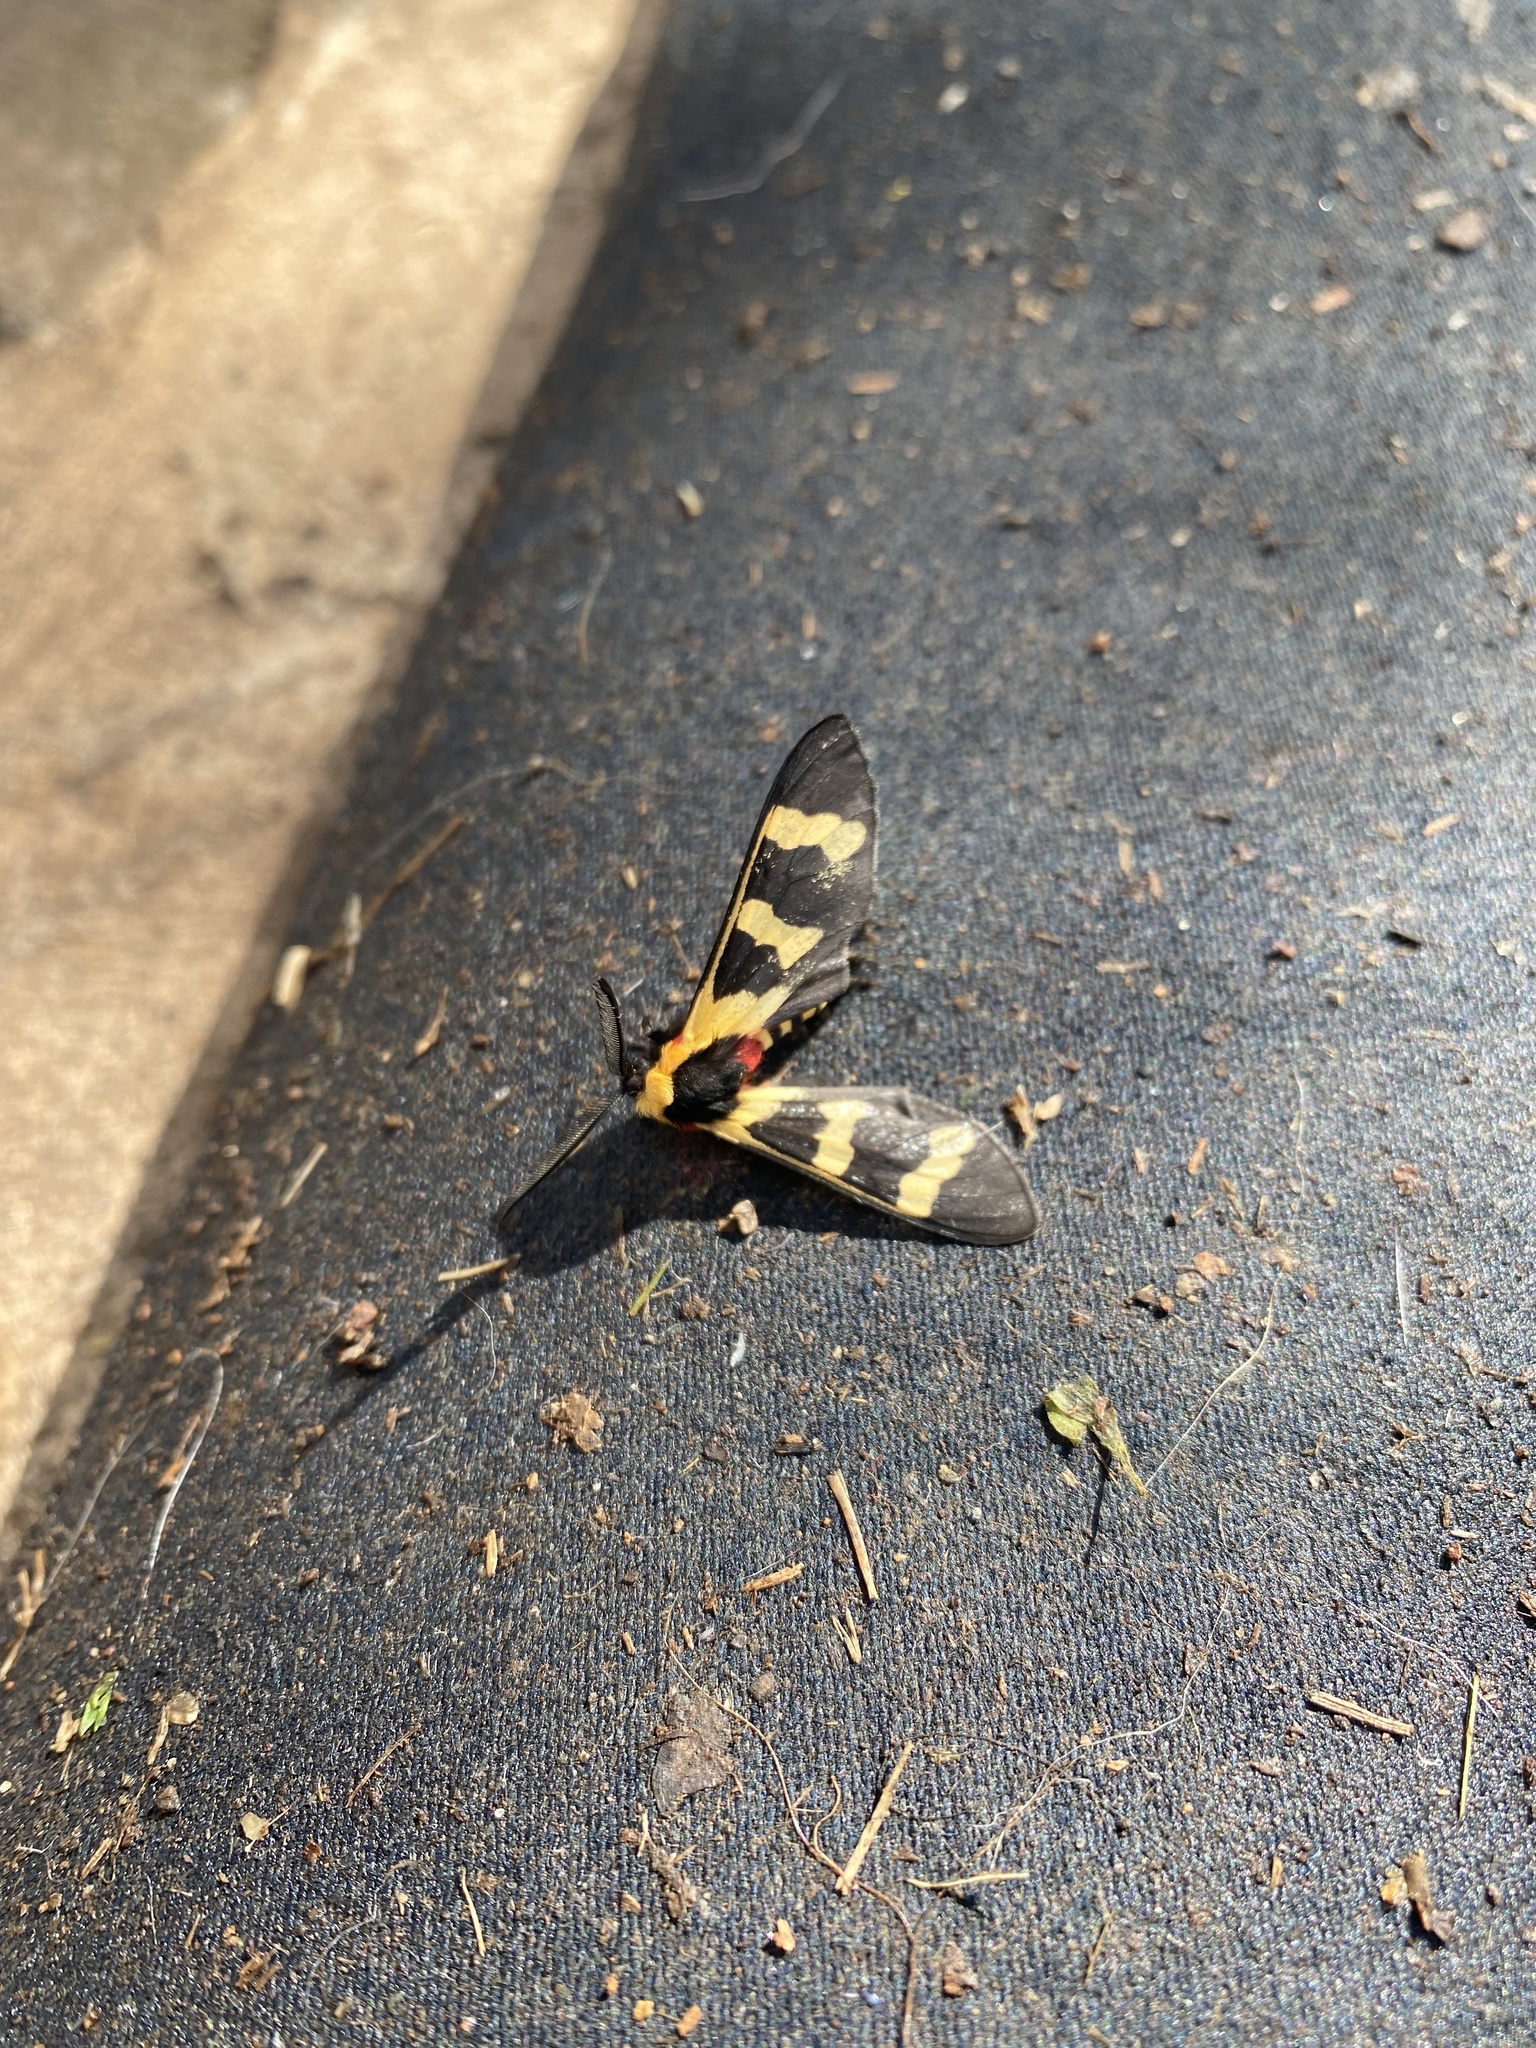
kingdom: Animalia
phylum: Arthropoda
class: Insecta
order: Lepidoptera
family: Erebidae
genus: Eurata
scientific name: Eurata hilaris
